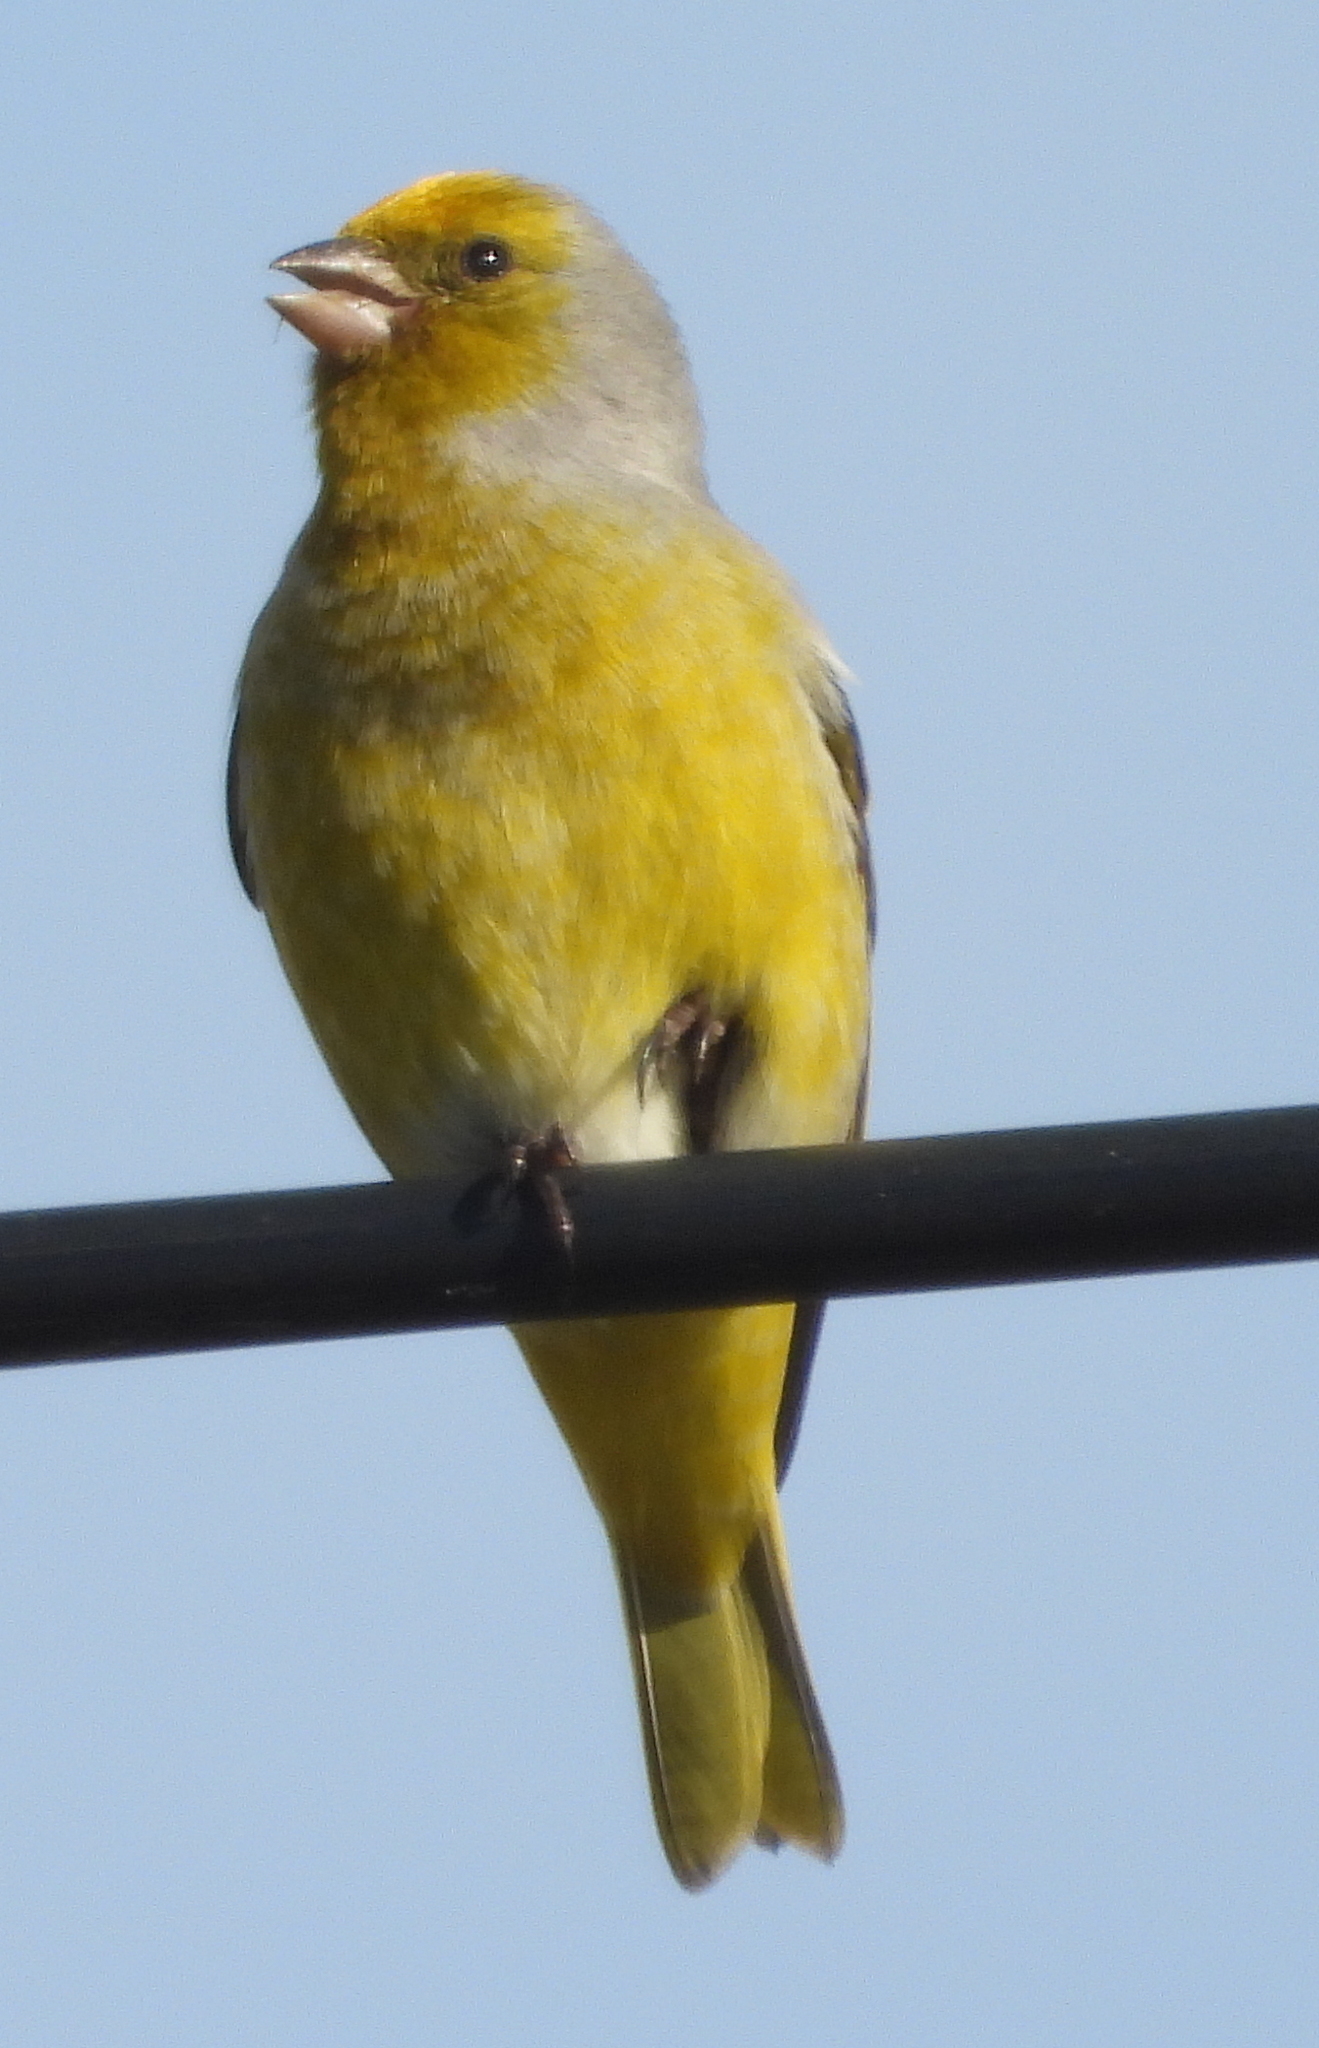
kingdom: Animalia
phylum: Chordata
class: Aves
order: Passeriformes
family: Fringillidae
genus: Serinus
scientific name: Serinus canicollis
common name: Cape canary
